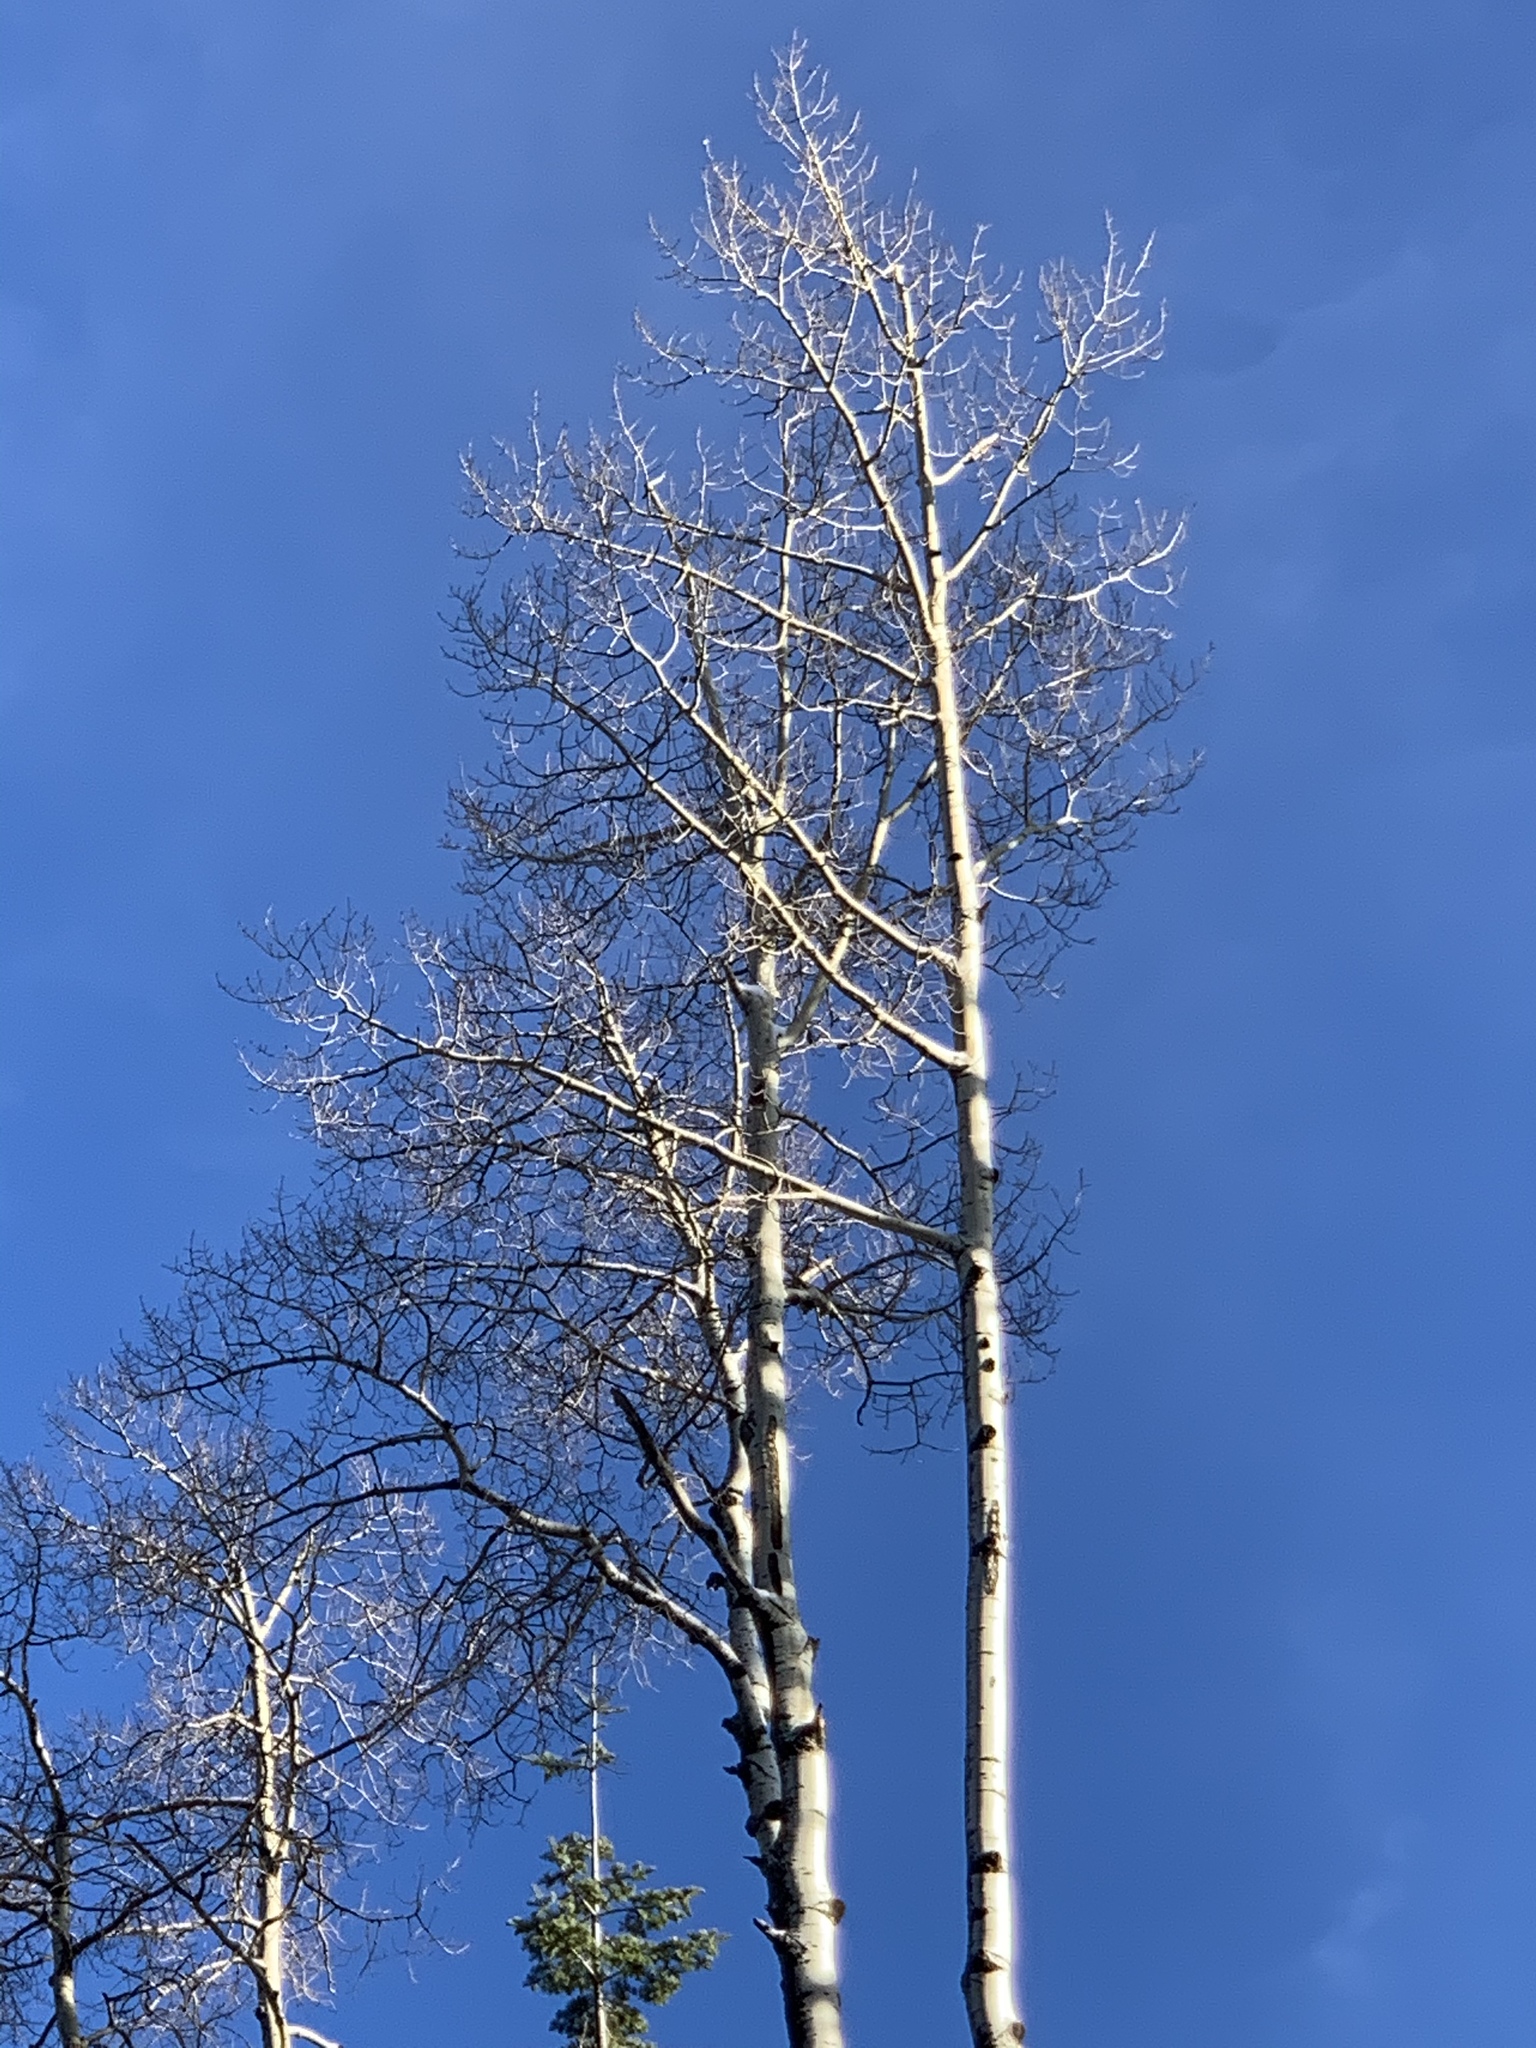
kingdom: Plantae
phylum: Tracheophyta
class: Magnoliopsida
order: Malpighiales
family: Salicaceae
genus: Populus
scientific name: Populus tremuloides
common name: Quaking aspen
